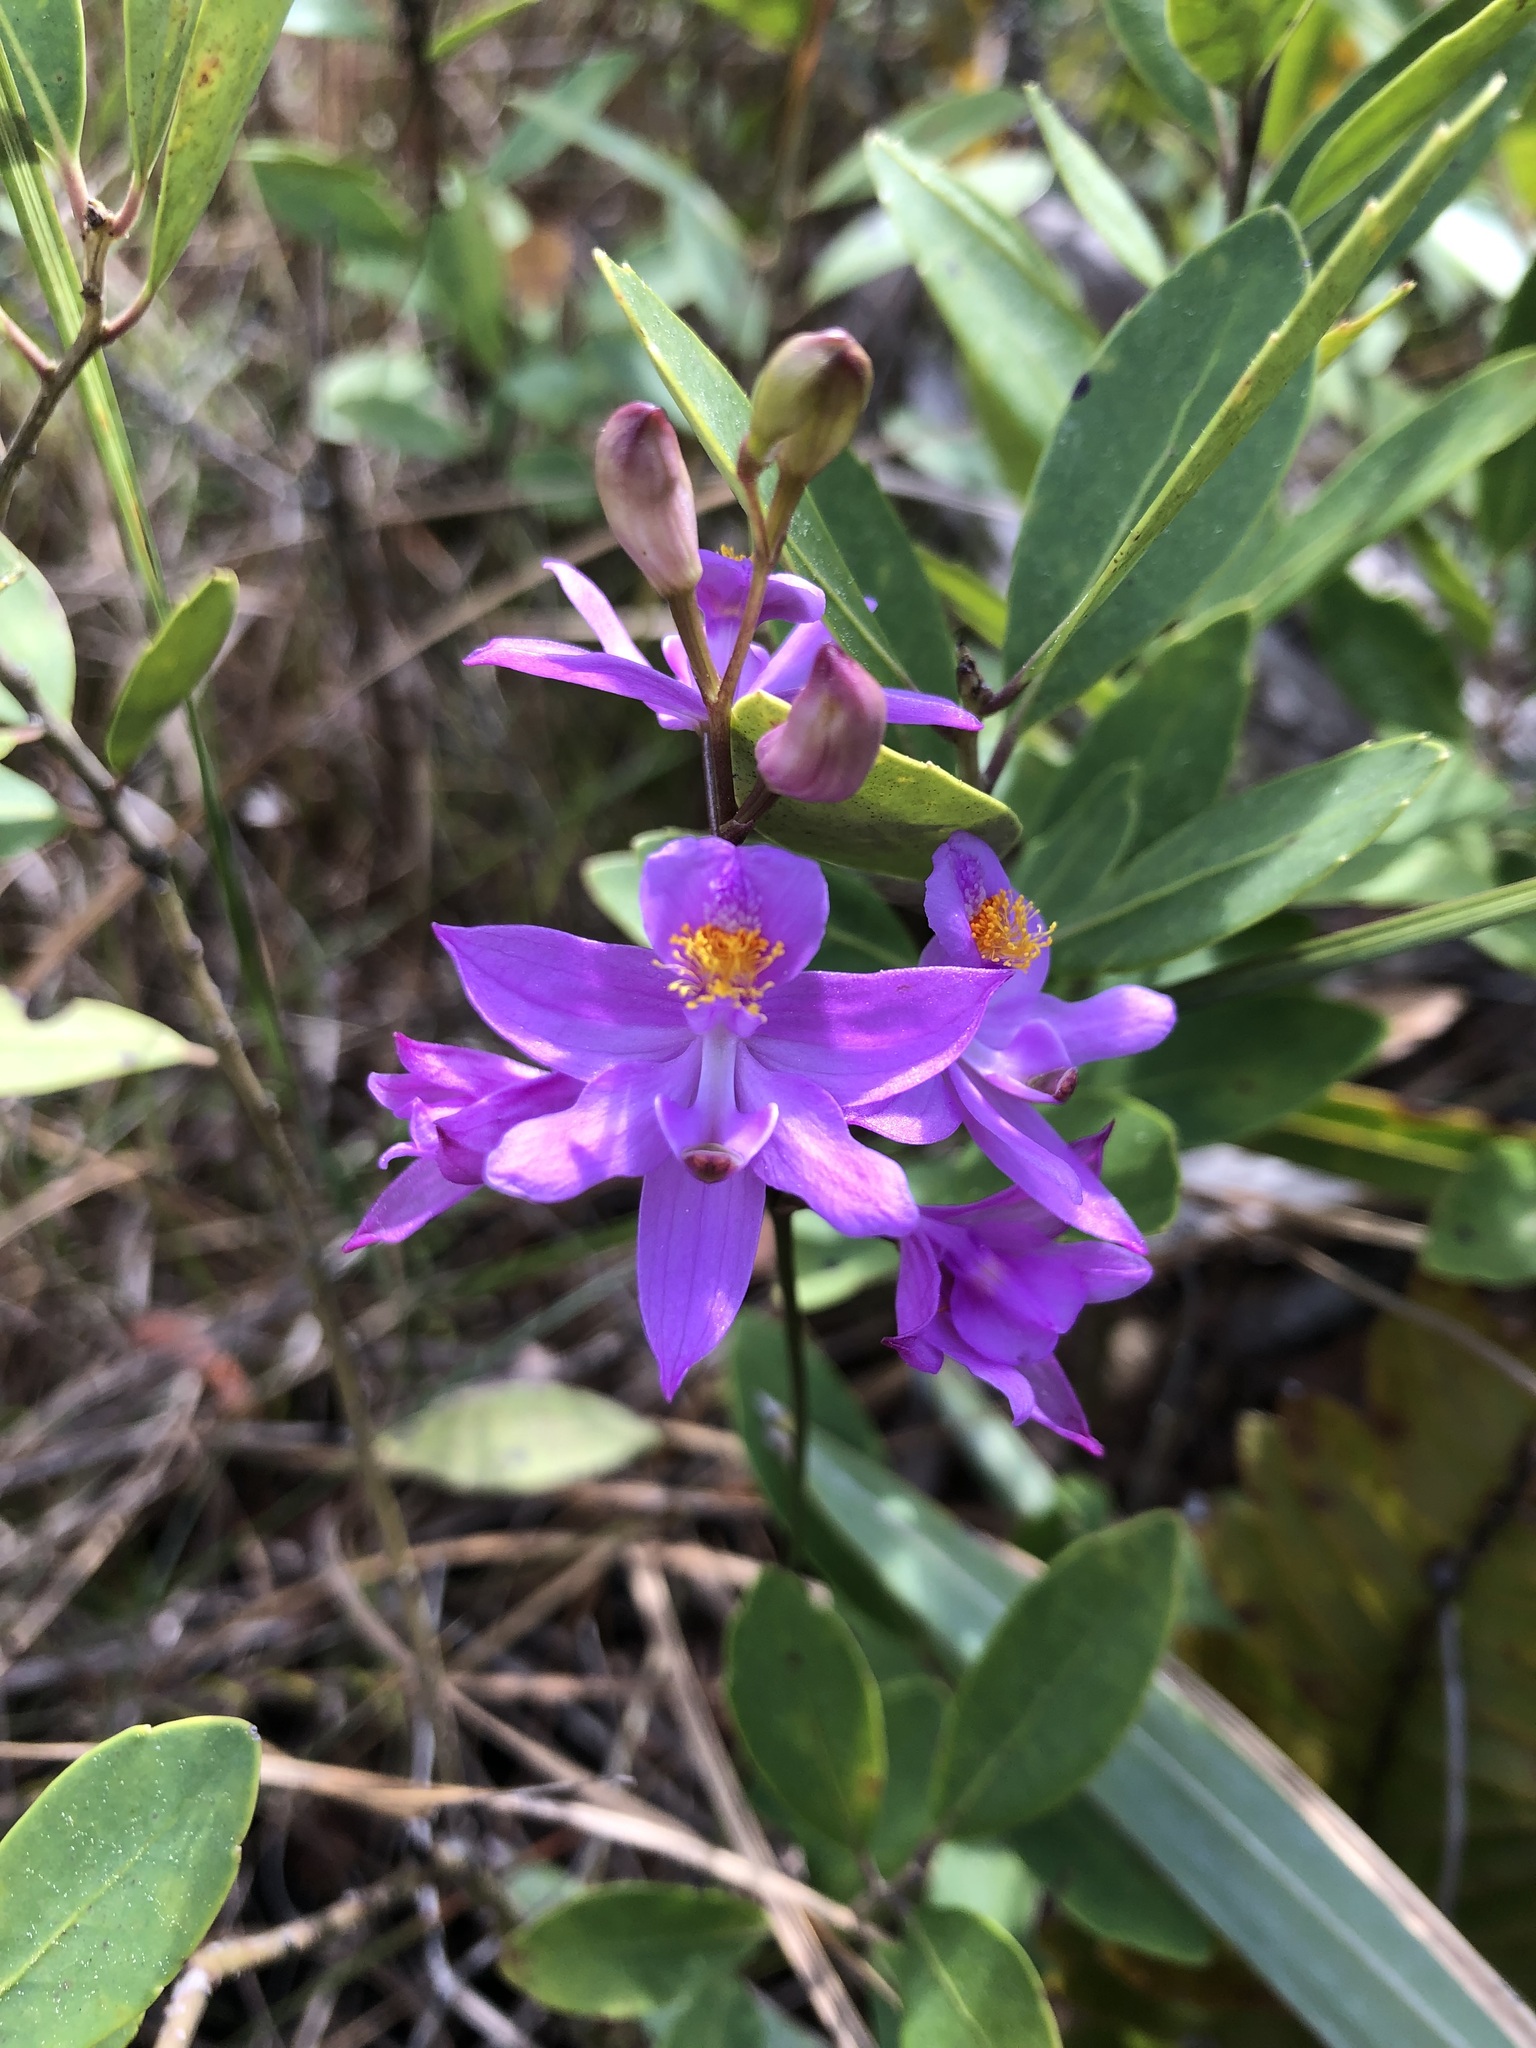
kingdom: Plantae
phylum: Tracheophyta
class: Liliopsida
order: Asparagales
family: Orchidaceae
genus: Calopogon
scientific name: Calopogon barbatus
